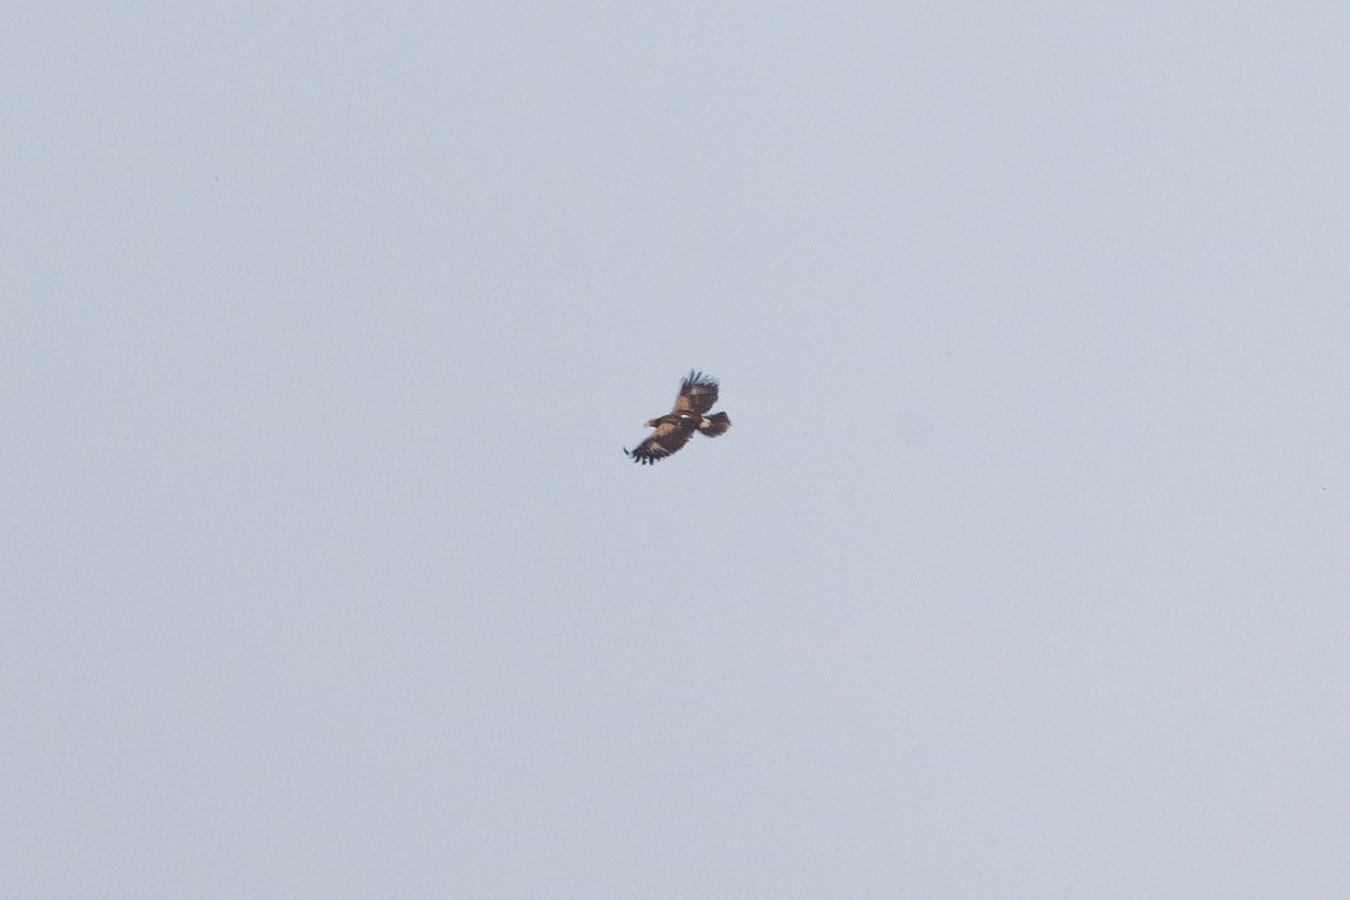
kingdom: Animalia
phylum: Chordata
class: Aves
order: Accipitriformes
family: Accipitridae
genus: Aquila
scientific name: Aquila nipalensis
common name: Steppe eagle
